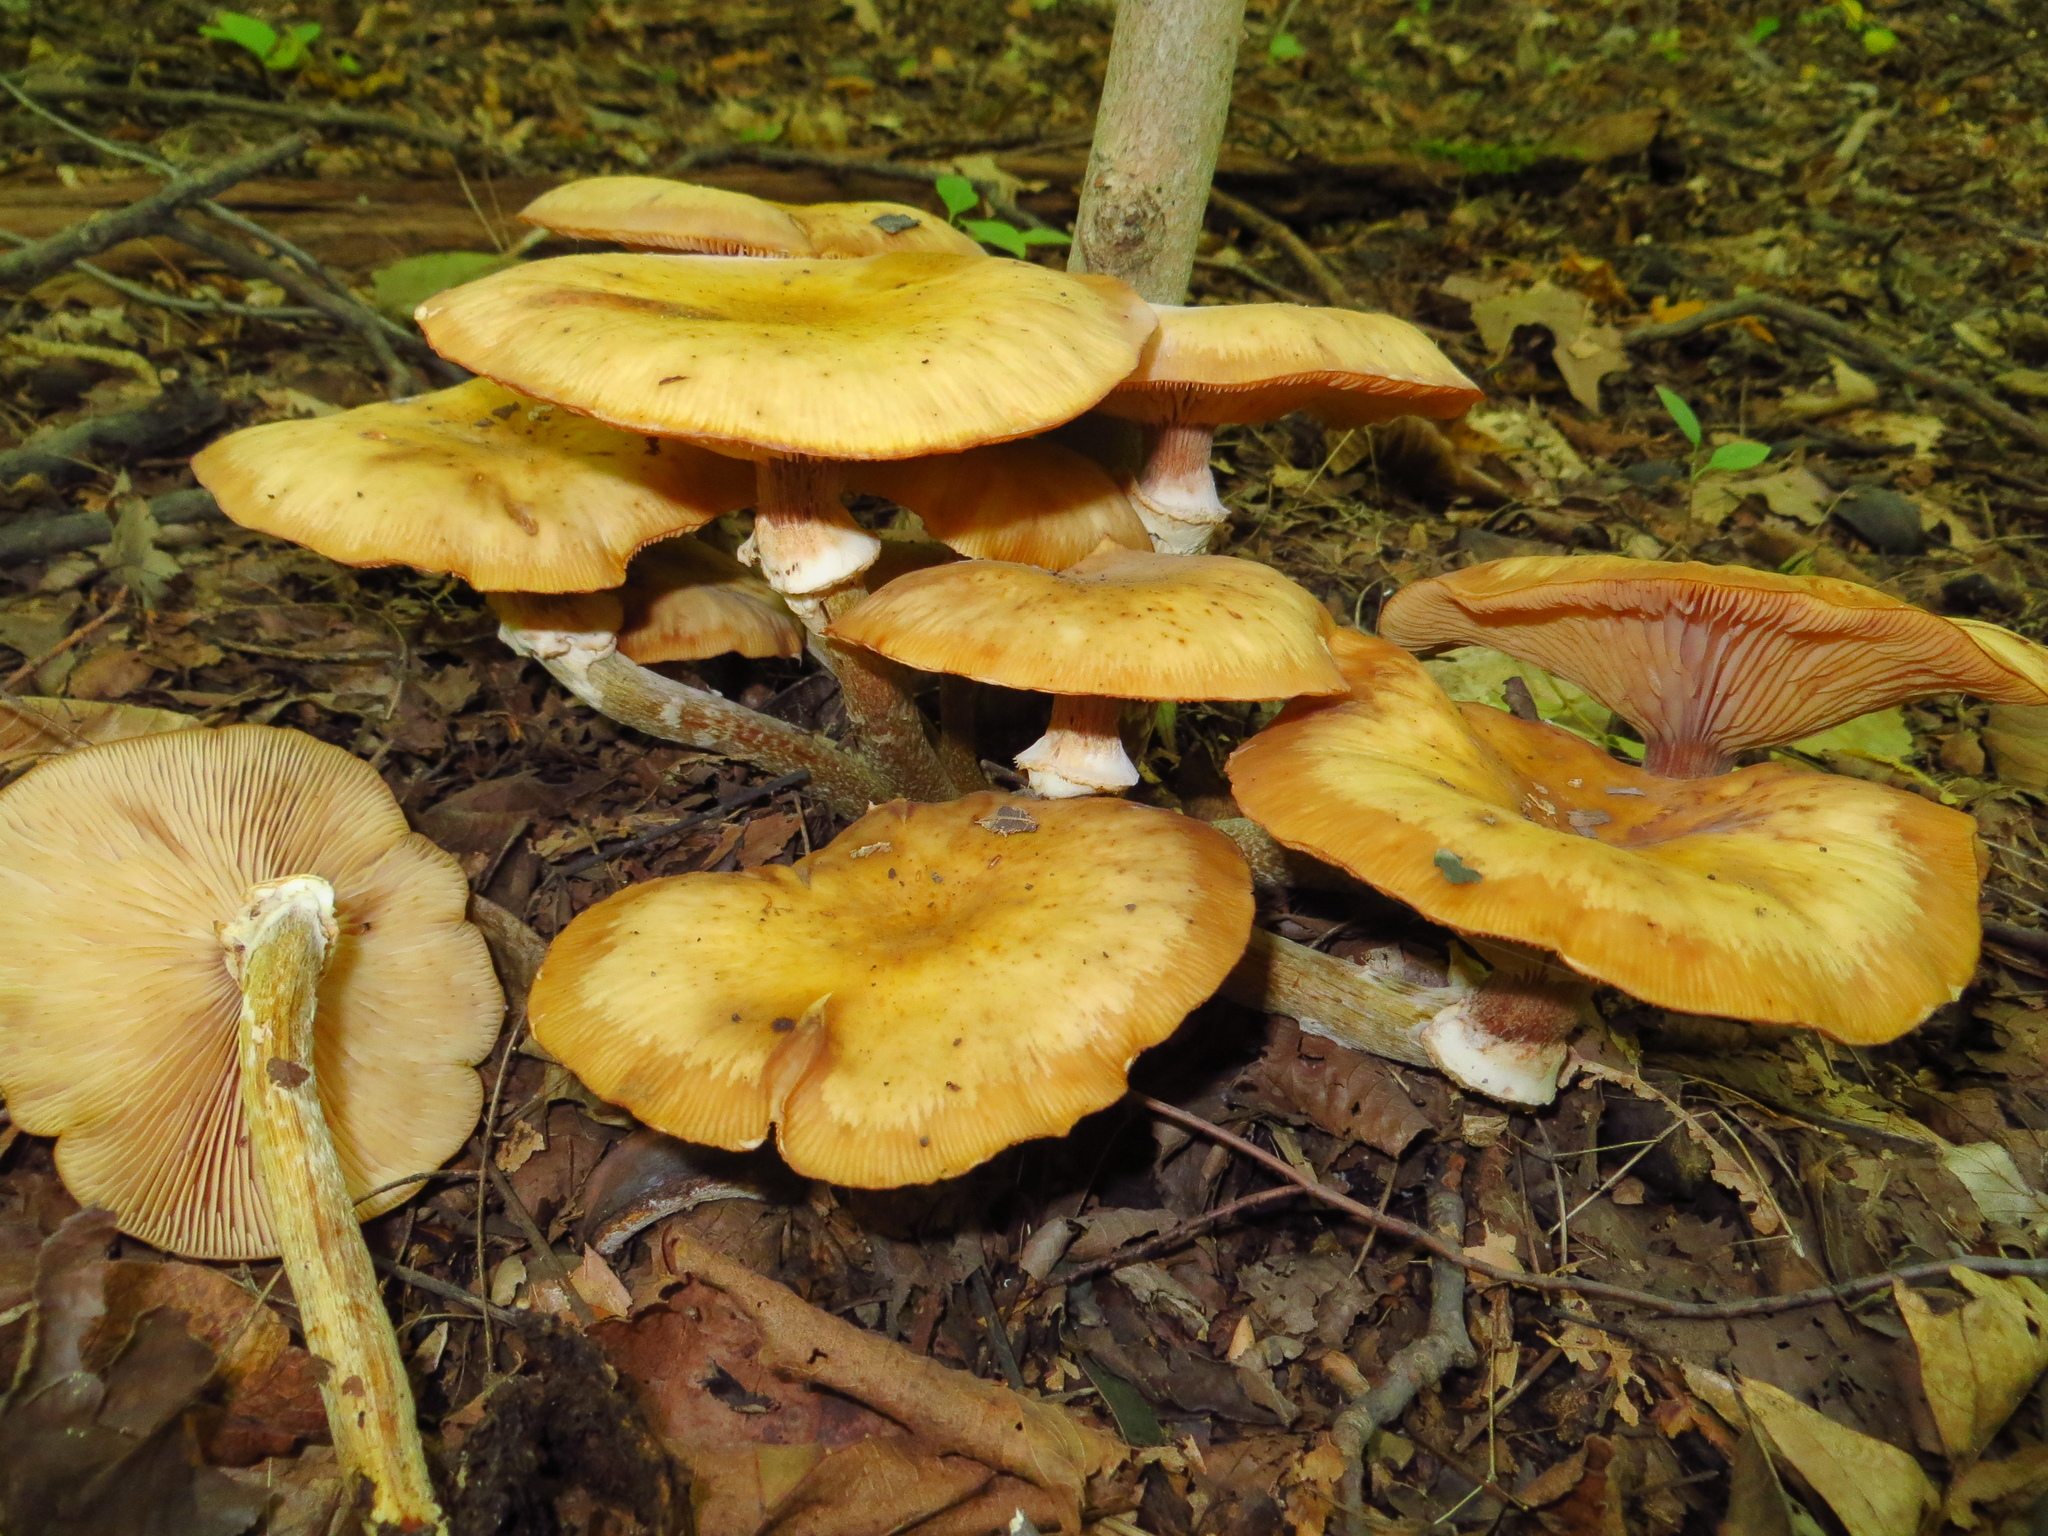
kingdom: Fungi
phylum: Basidiomycota
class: Agaricomycetes
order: Agaricales
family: Physalacriaceae
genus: Armillaria
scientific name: Armillaria mellea
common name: Honey fungus
